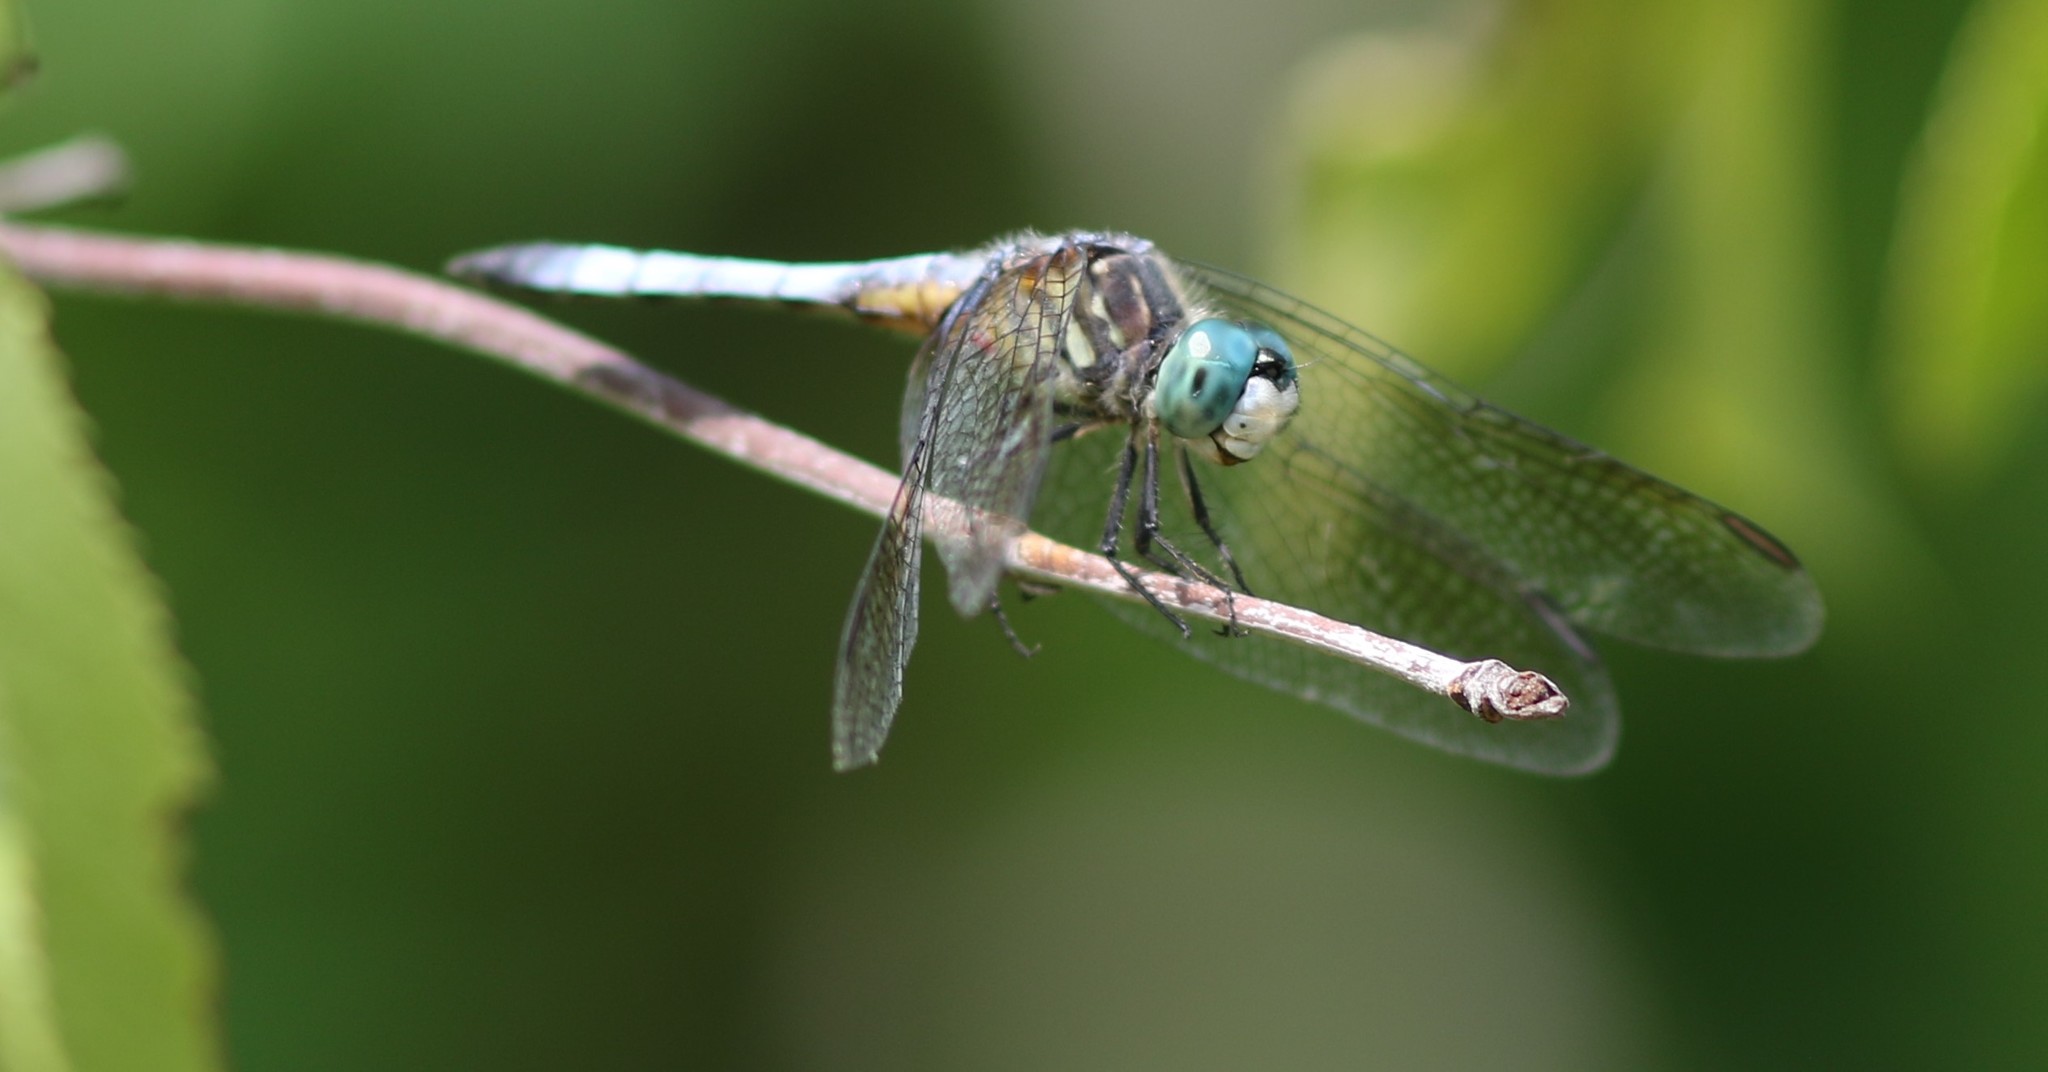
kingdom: Animalia
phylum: Arthropoda
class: Insecta
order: Odonata
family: Libellulidae
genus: Pachydiplax
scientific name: Pachydiplax longipennis
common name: Blue dasher
